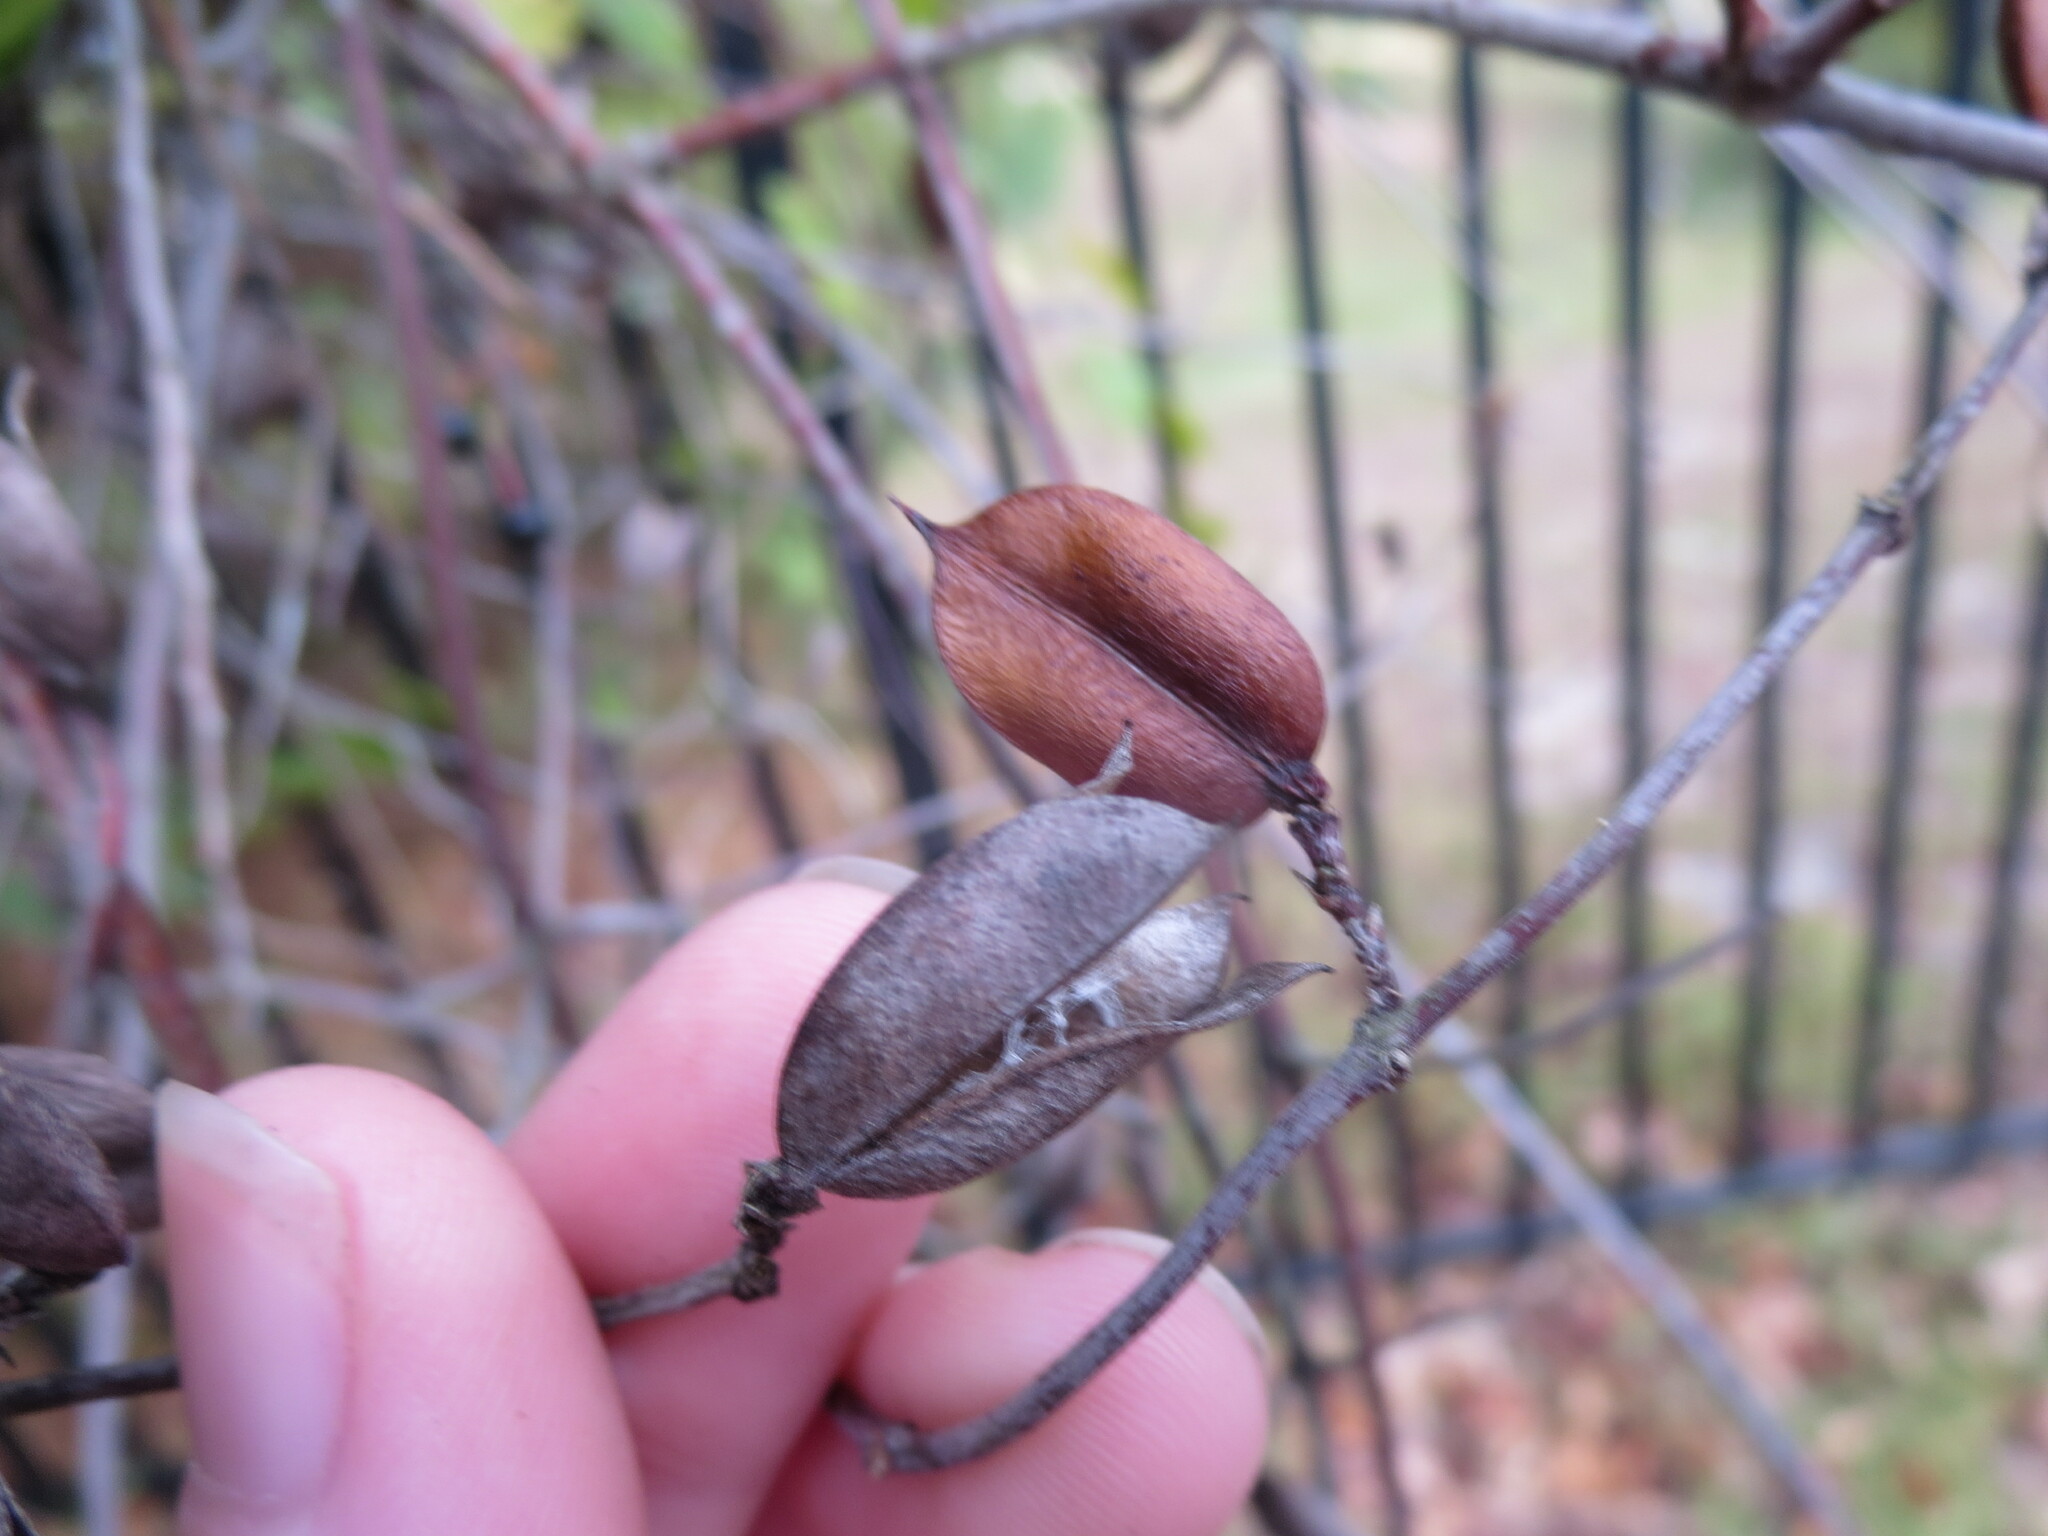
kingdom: Plantae
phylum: Tracheophyta
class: Magnoliopsida
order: Gentianales
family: Gelsemiaceae
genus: Gelsemium
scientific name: Gelsemium sempervirens
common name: Carolina-jasmine
